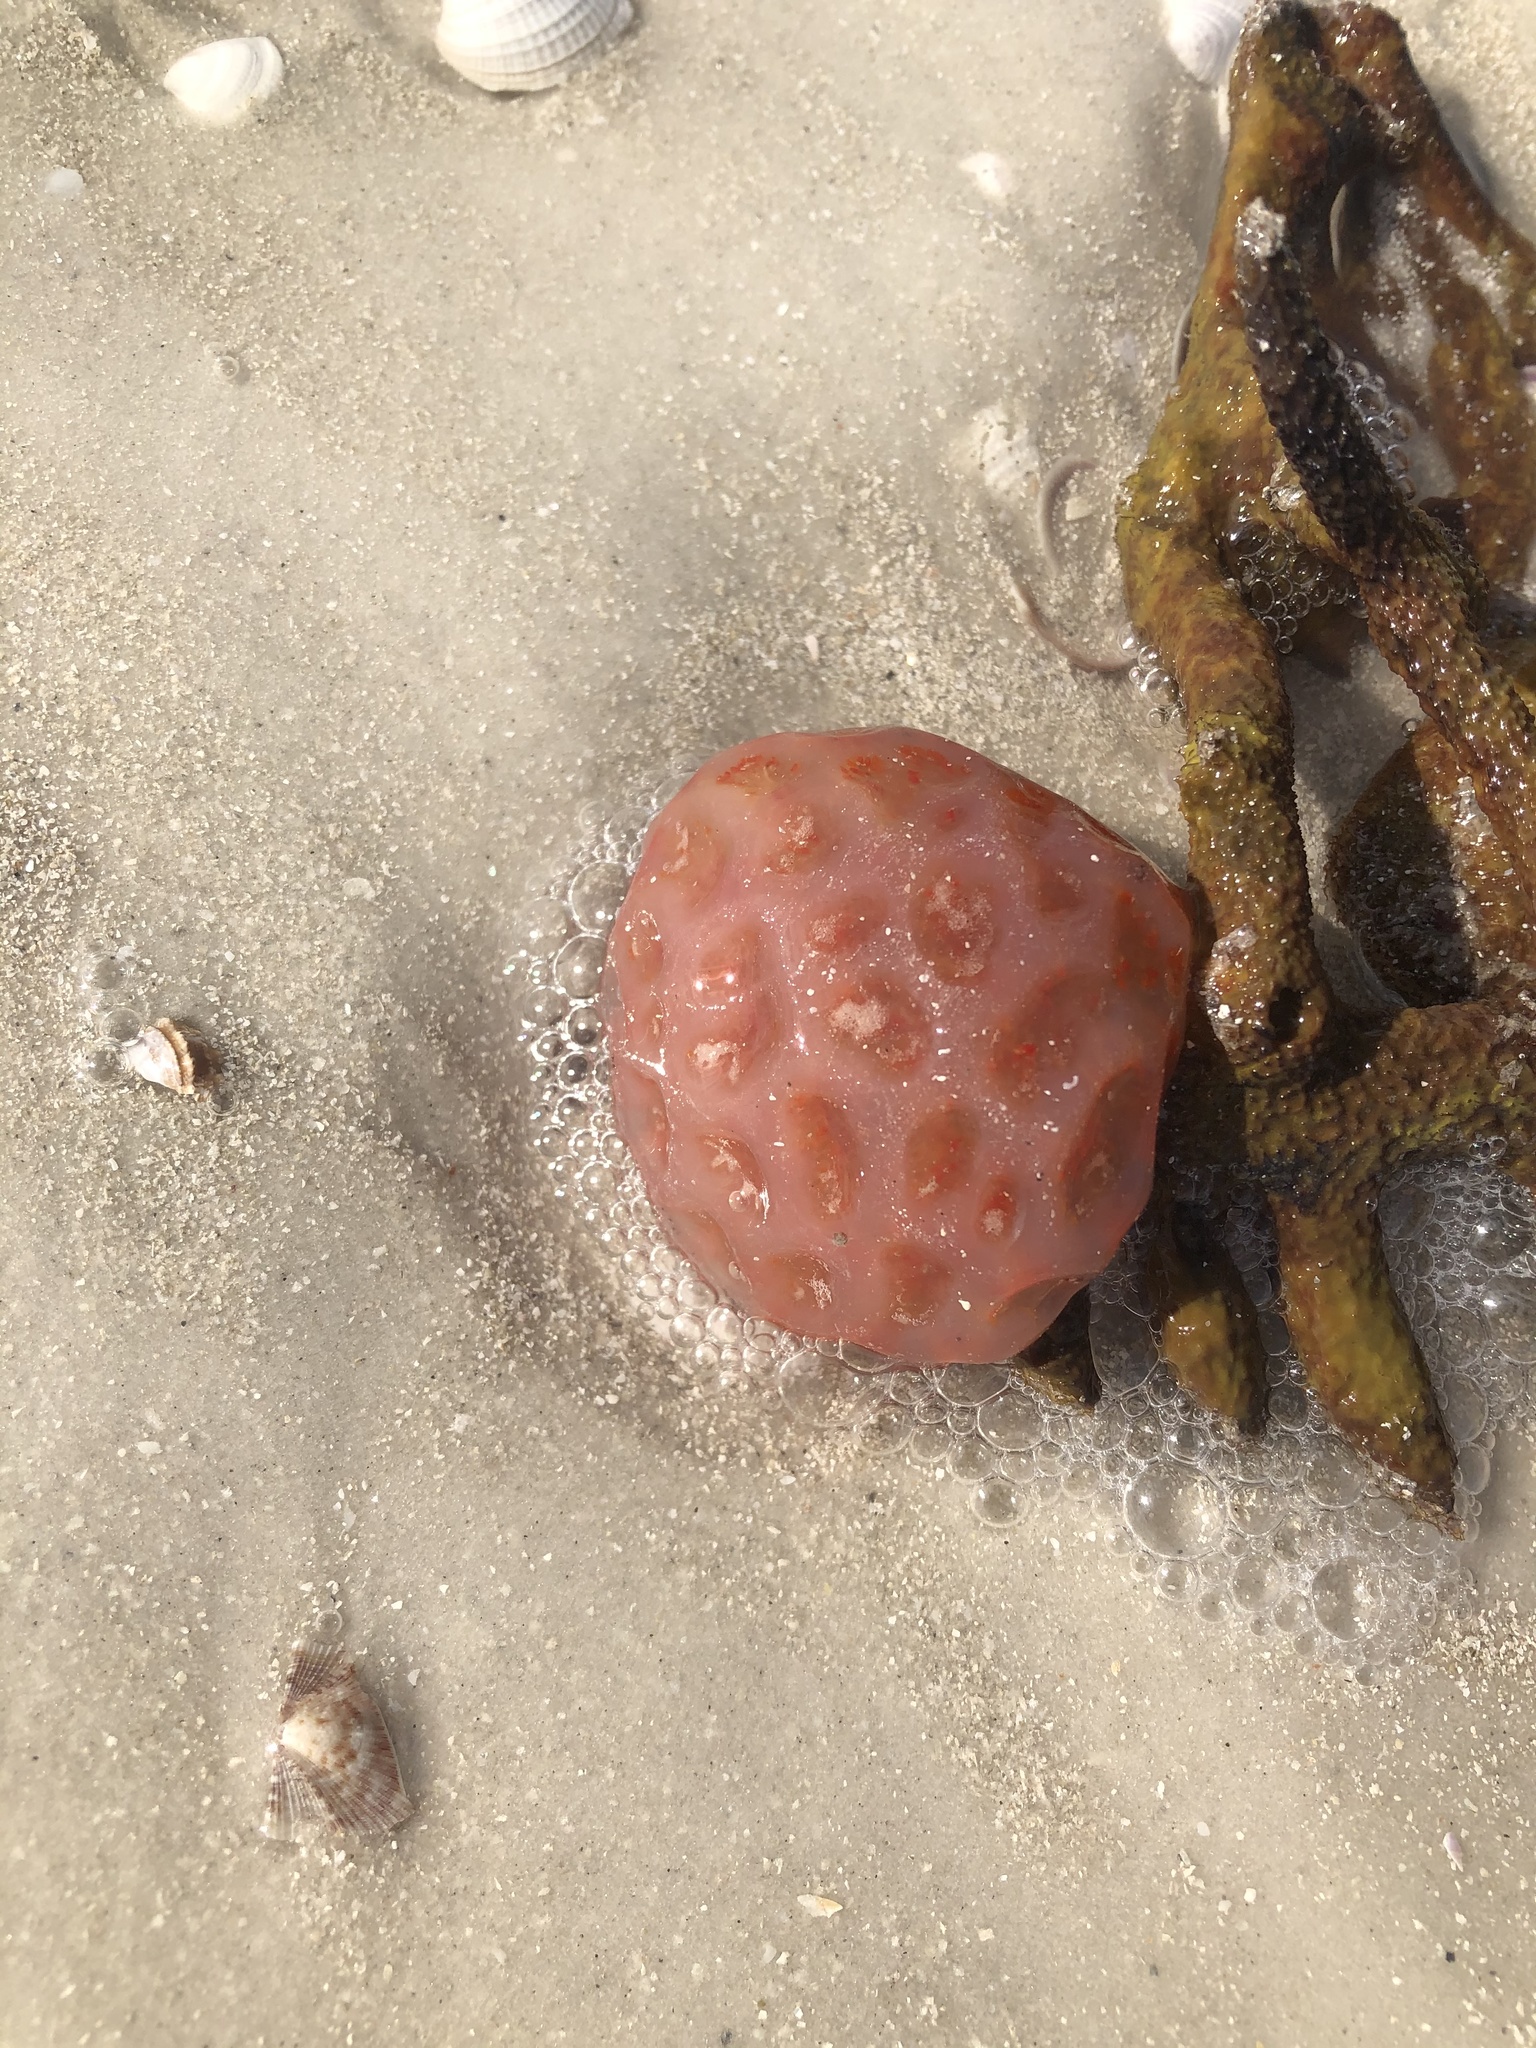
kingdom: Animalia
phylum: Chordata
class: Ascidiacea
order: Aplousobranchia
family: Polyclinidae
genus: Aplidium
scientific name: Aplidium stellatum
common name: Atlantic sea pork
